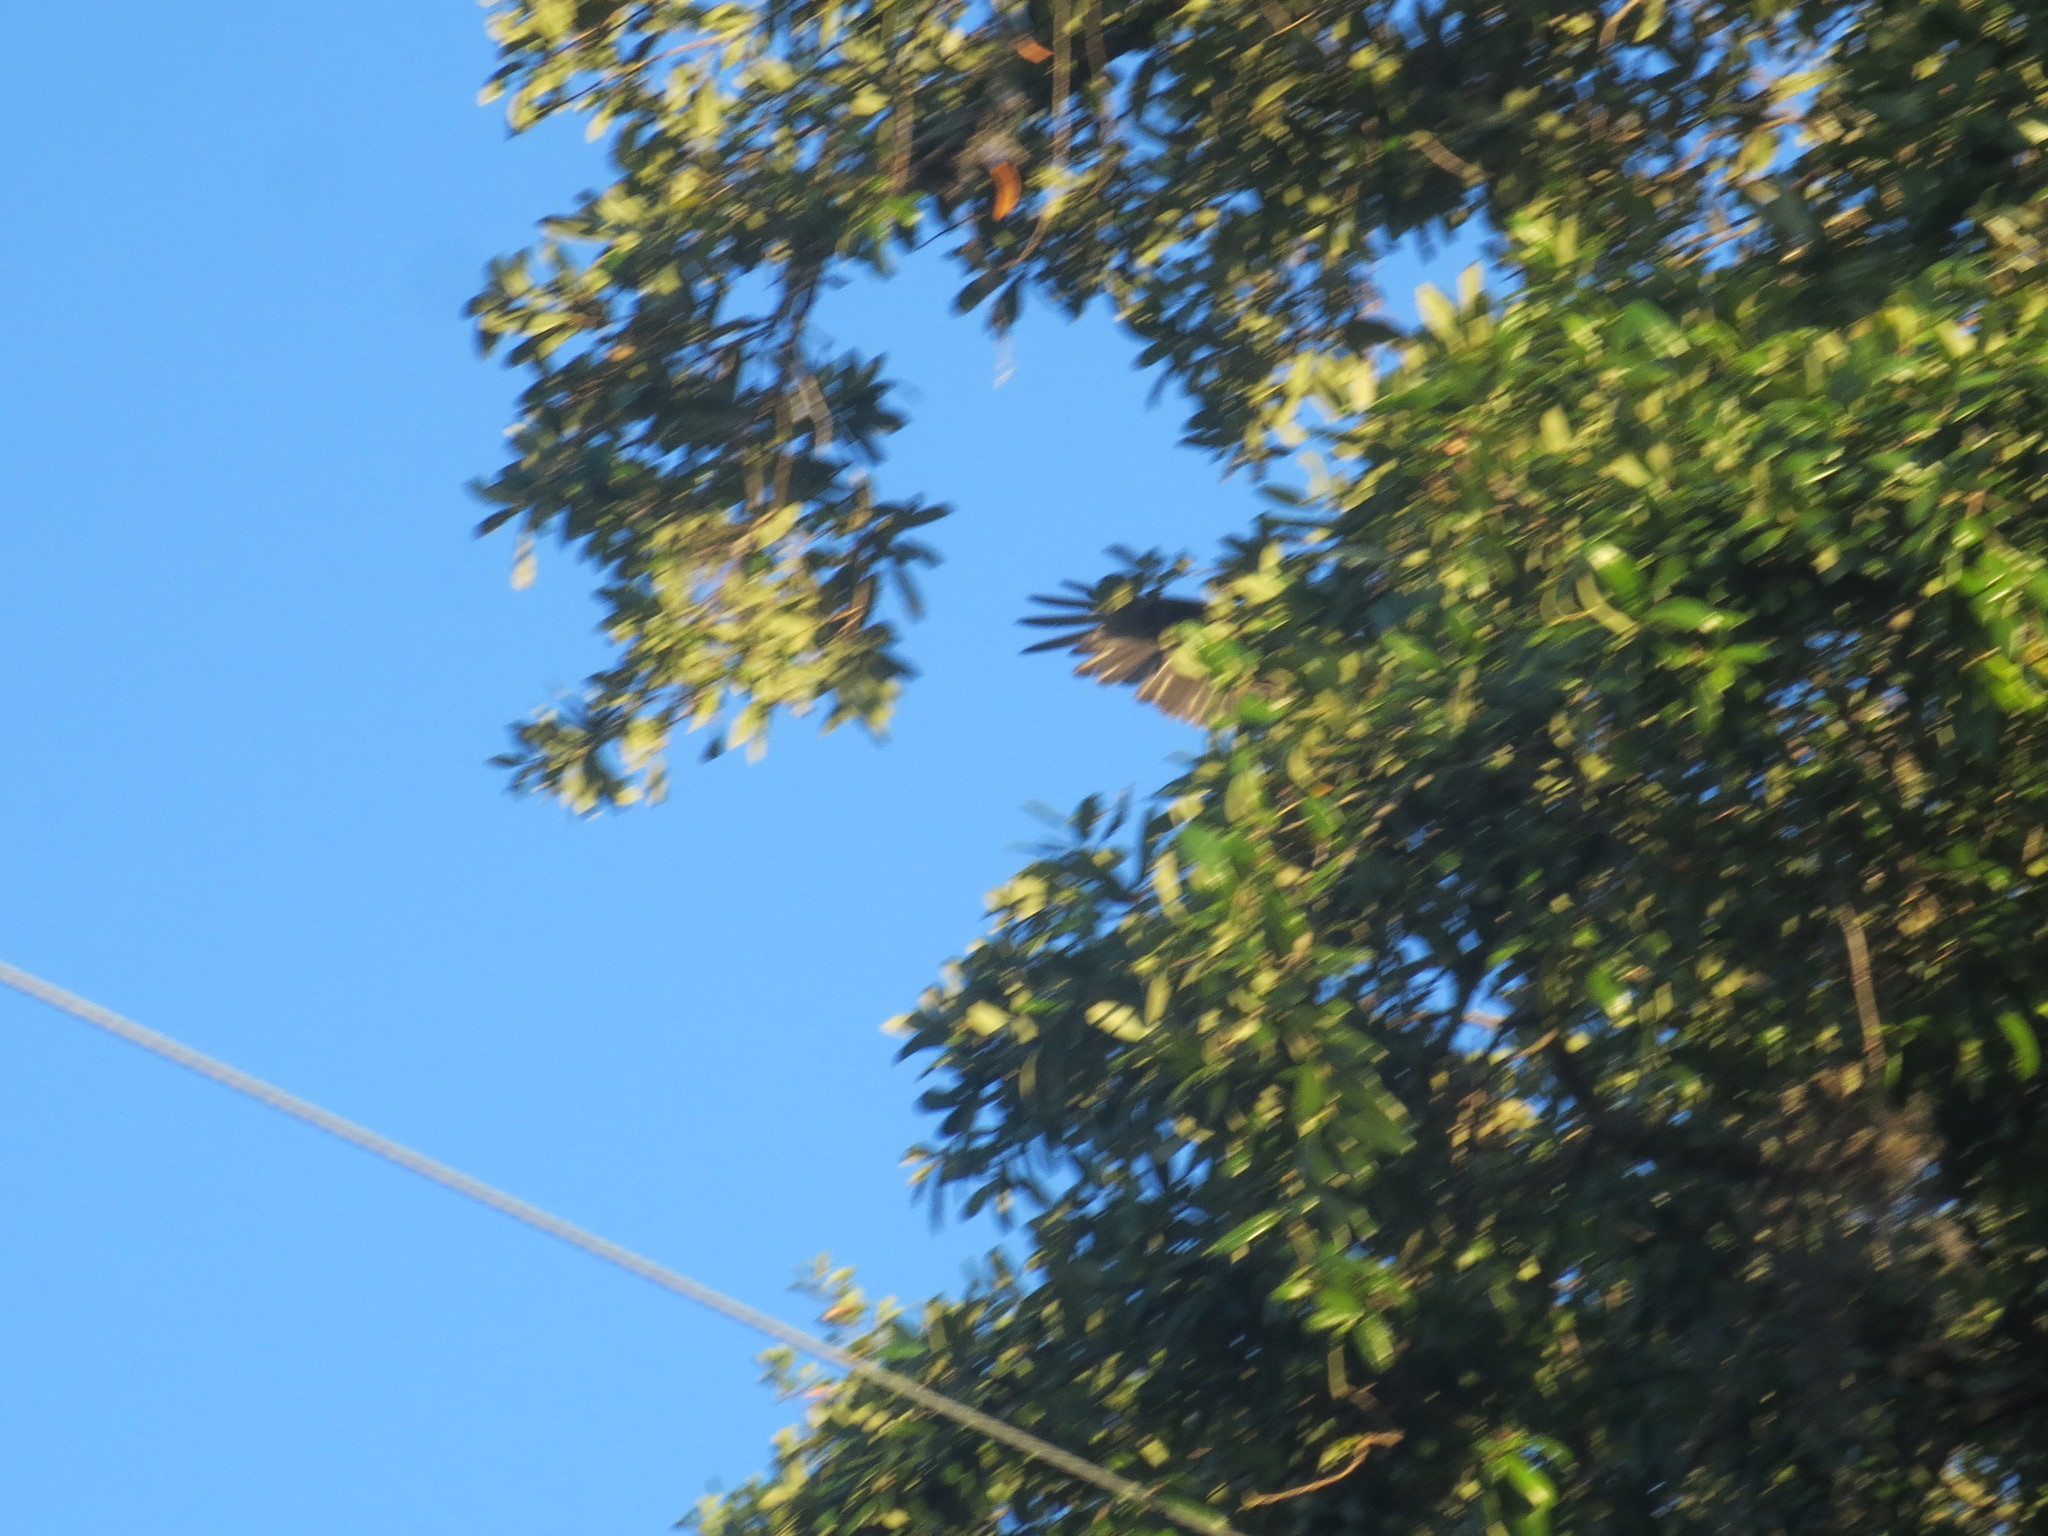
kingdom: Animalia
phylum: Chordata
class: Aves
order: Accipitriformes
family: Cathartidae
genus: Cathartes
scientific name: Cathartes aura
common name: Turkey vulture
